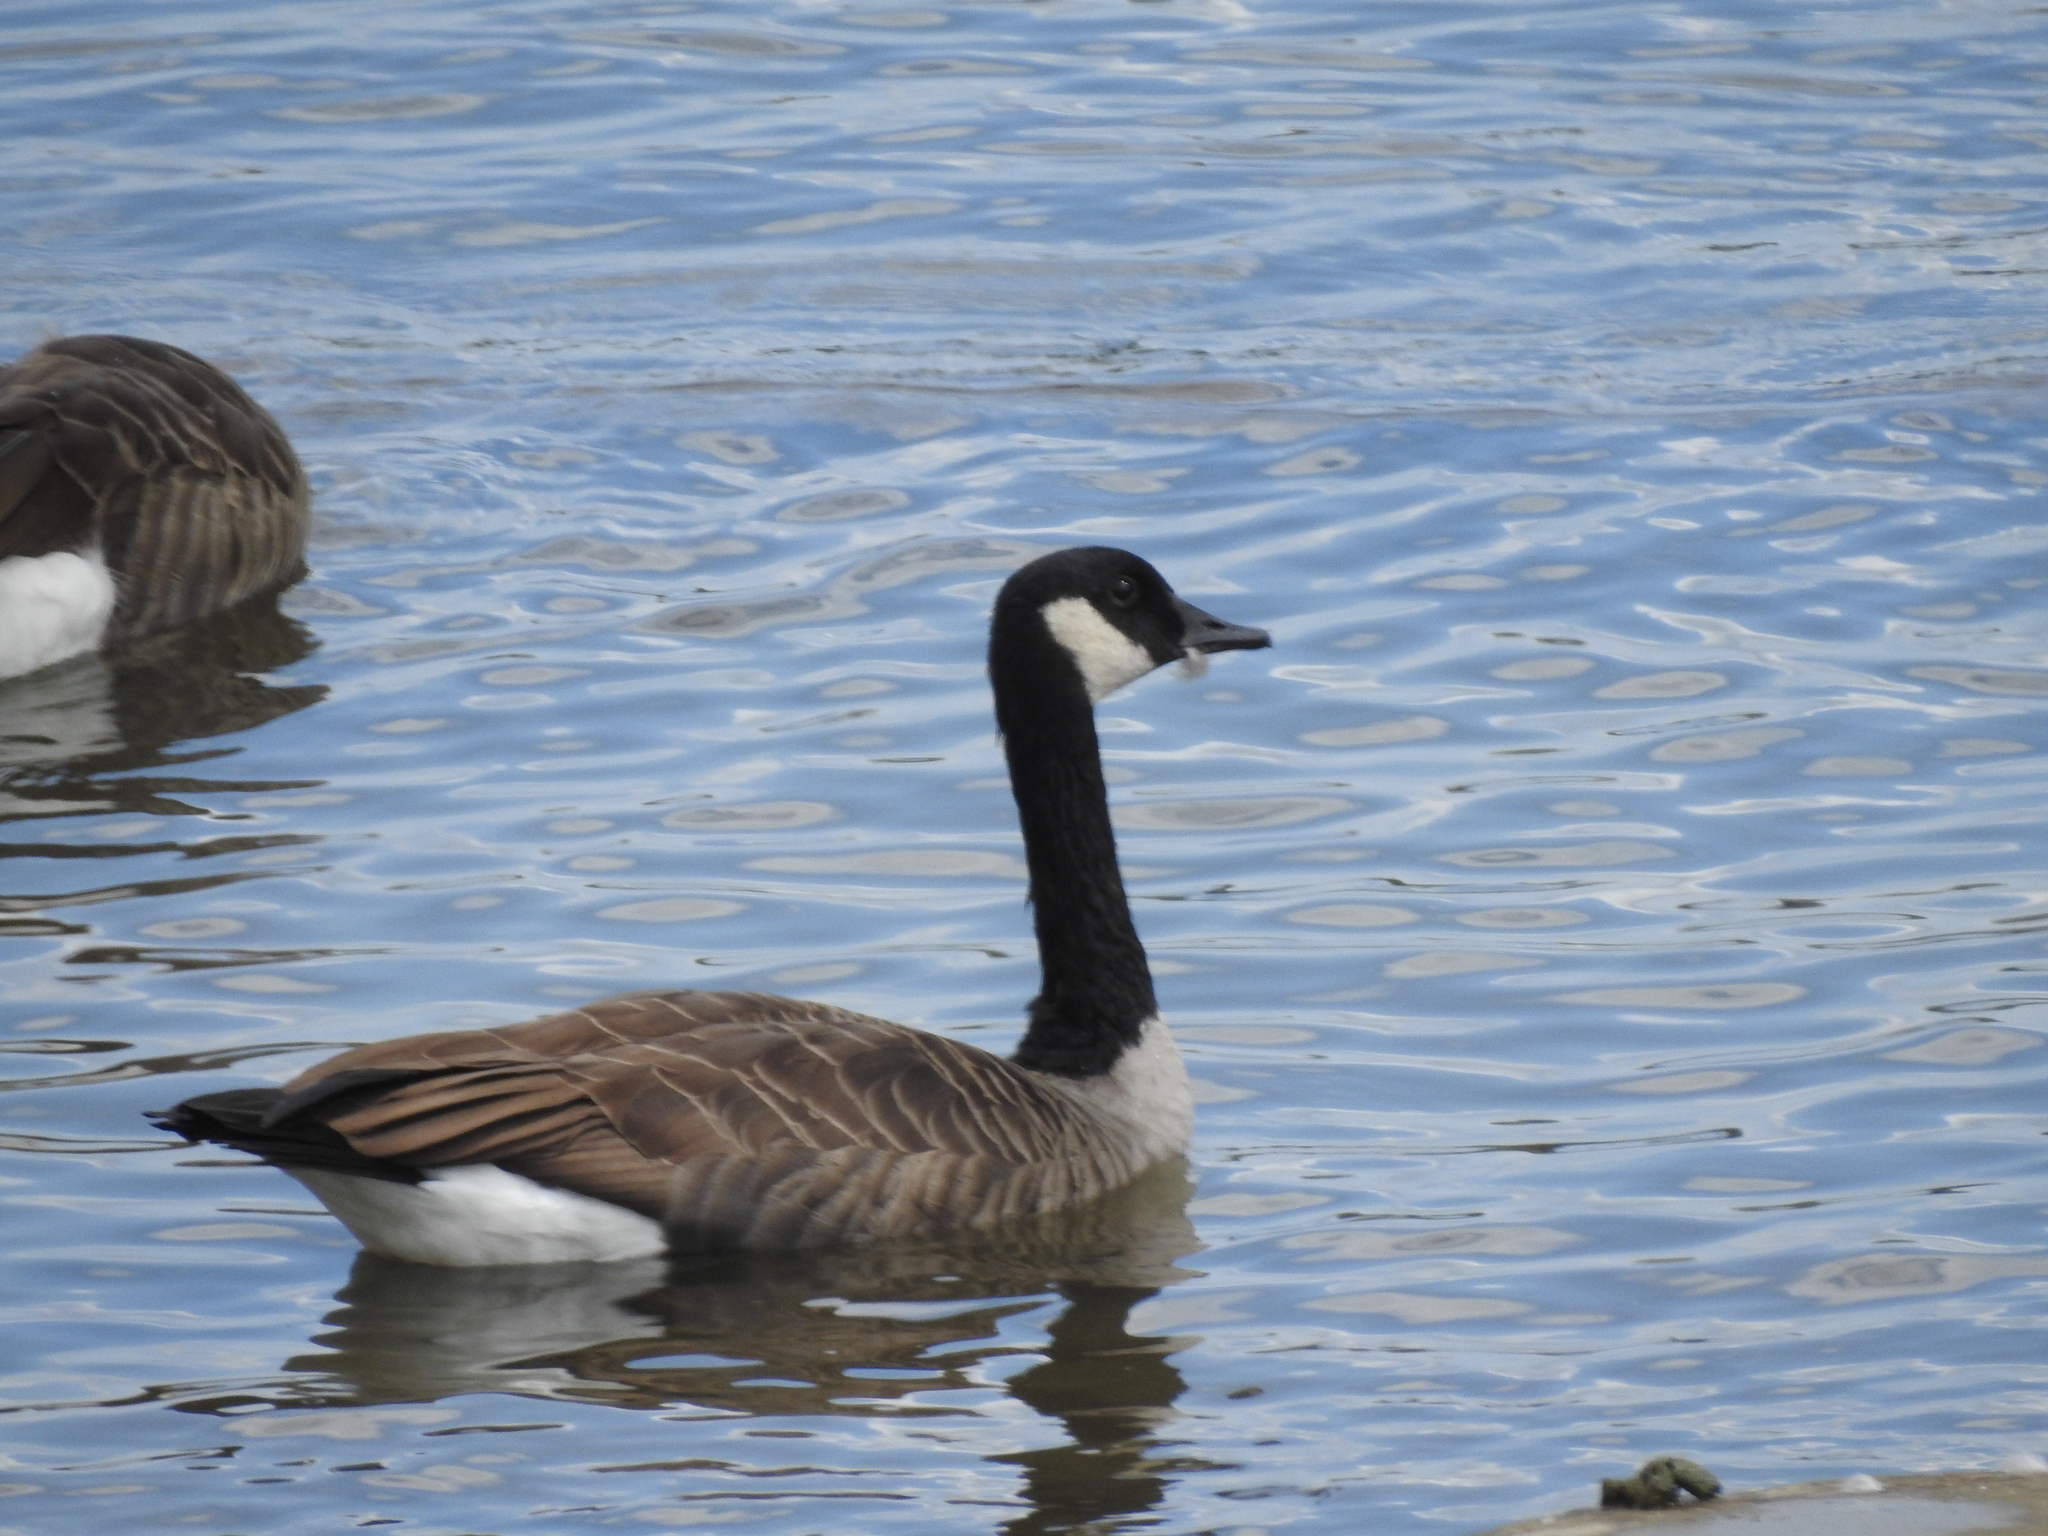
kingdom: Animalia
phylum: Chordata
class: Aves
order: Anseriformes
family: Anatidae
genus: Branta
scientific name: Branta canadensis
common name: Canada goose
